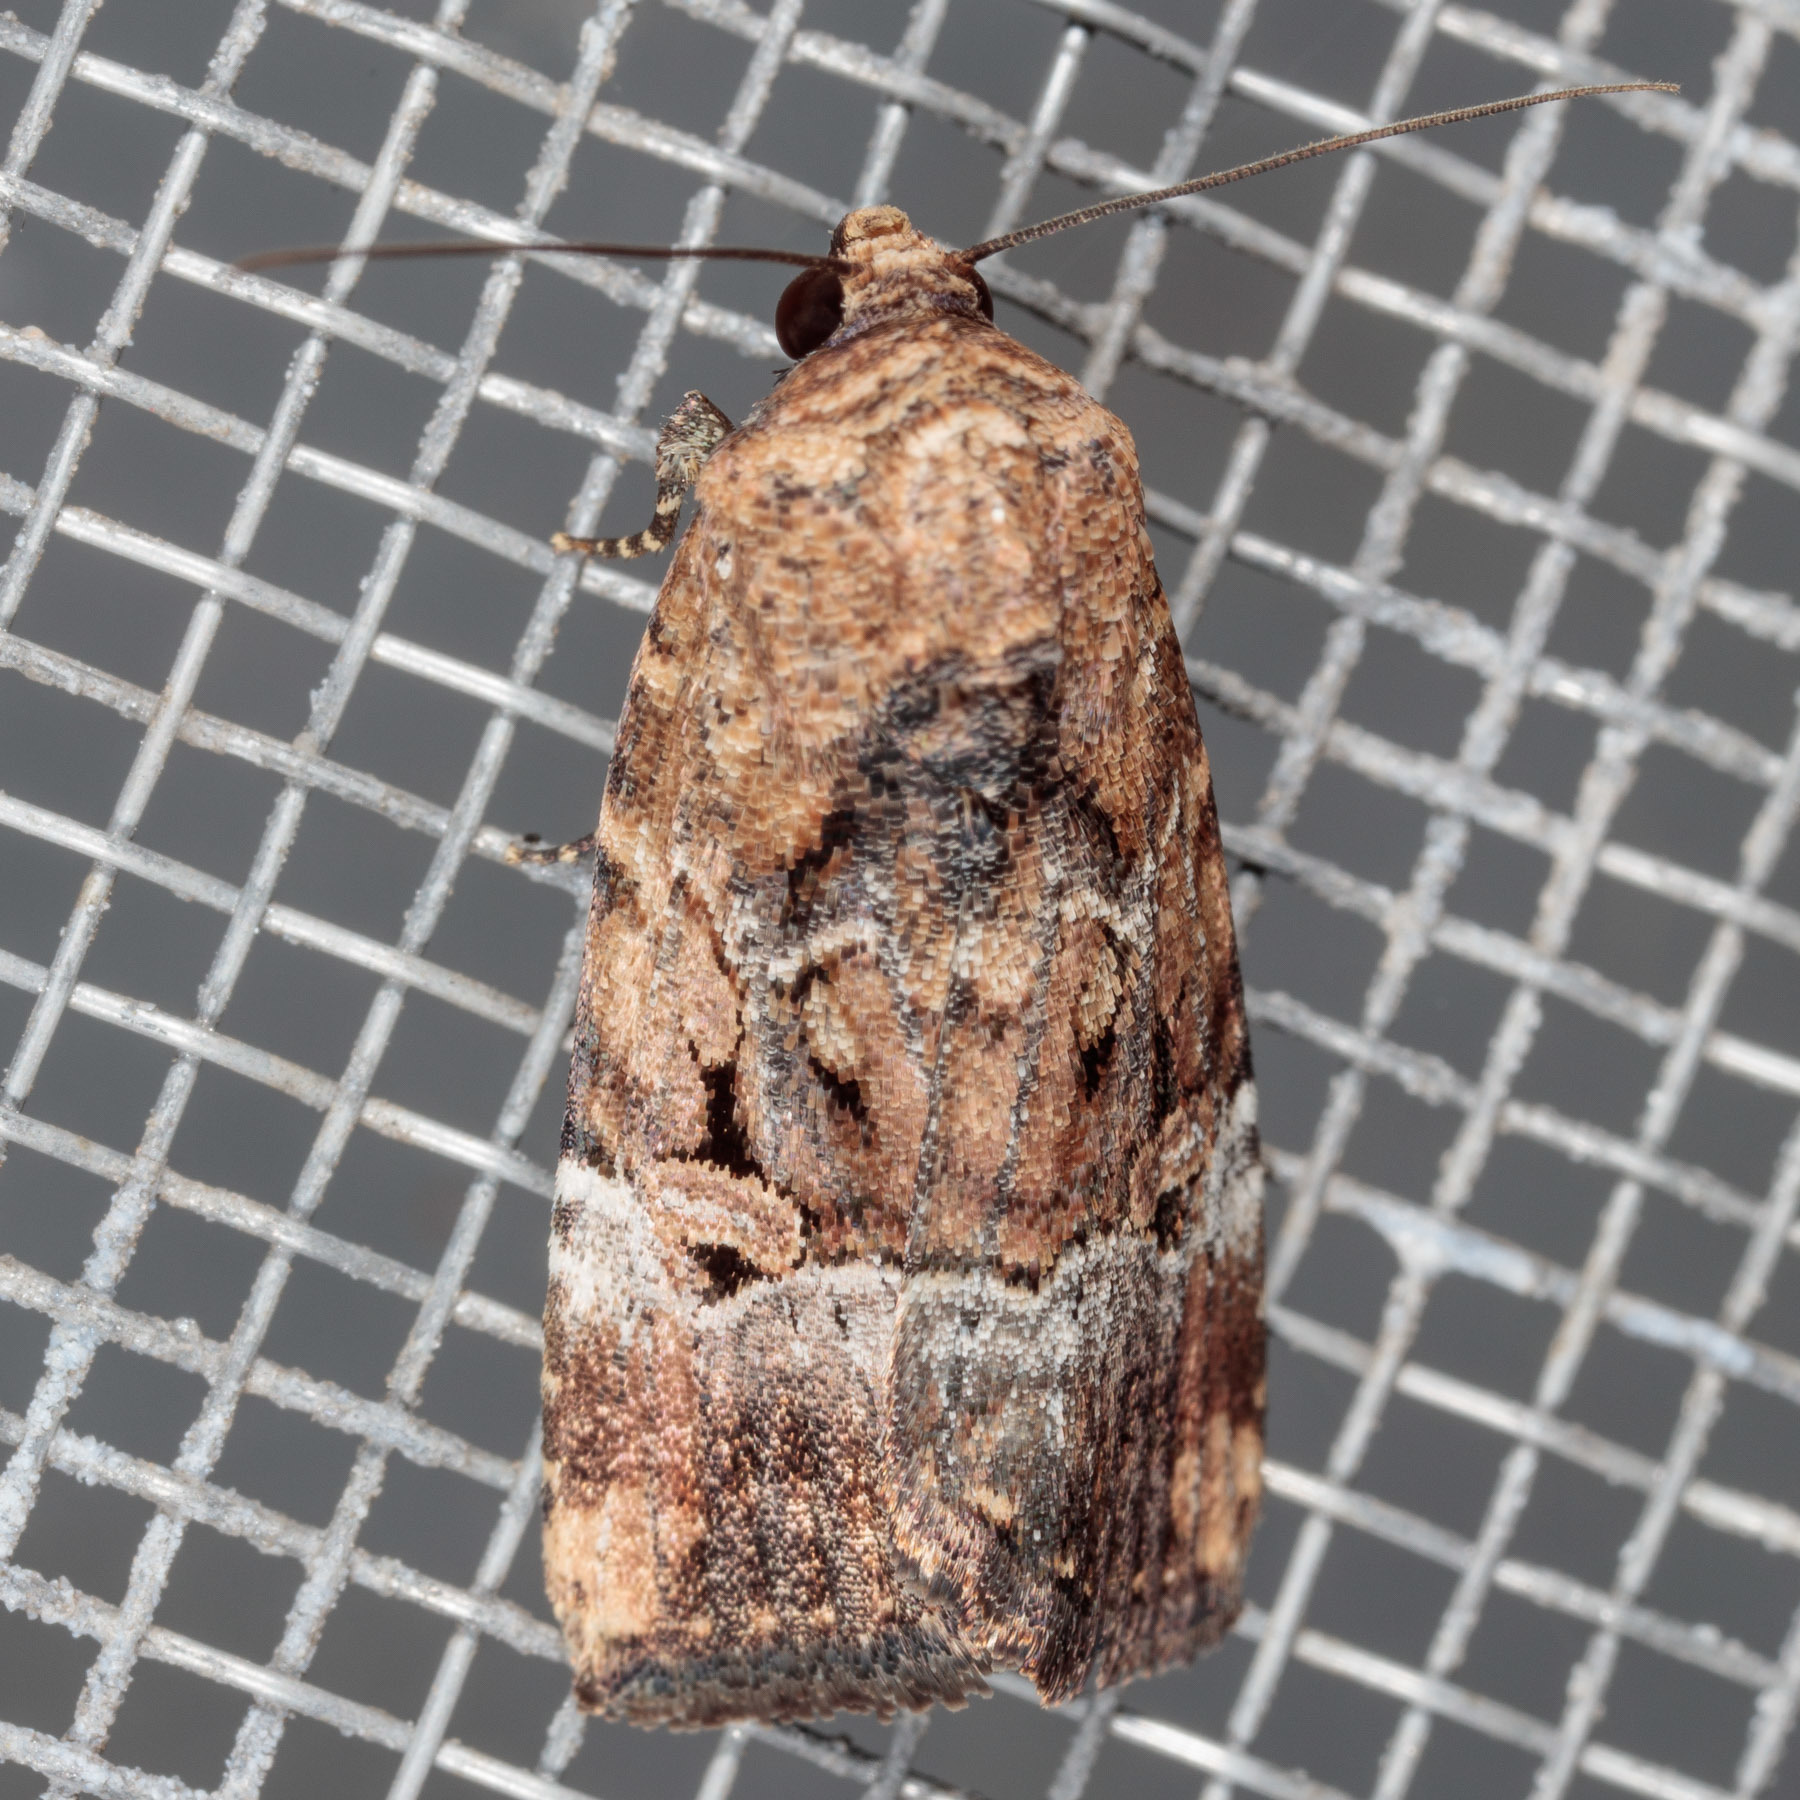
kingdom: Animalia
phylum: Arthropoda
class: Insecta
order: Lepidoptera
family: Noctuidae
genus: Elaphria
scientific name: Elaphria chalcedonia
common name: Chalcedony midget
